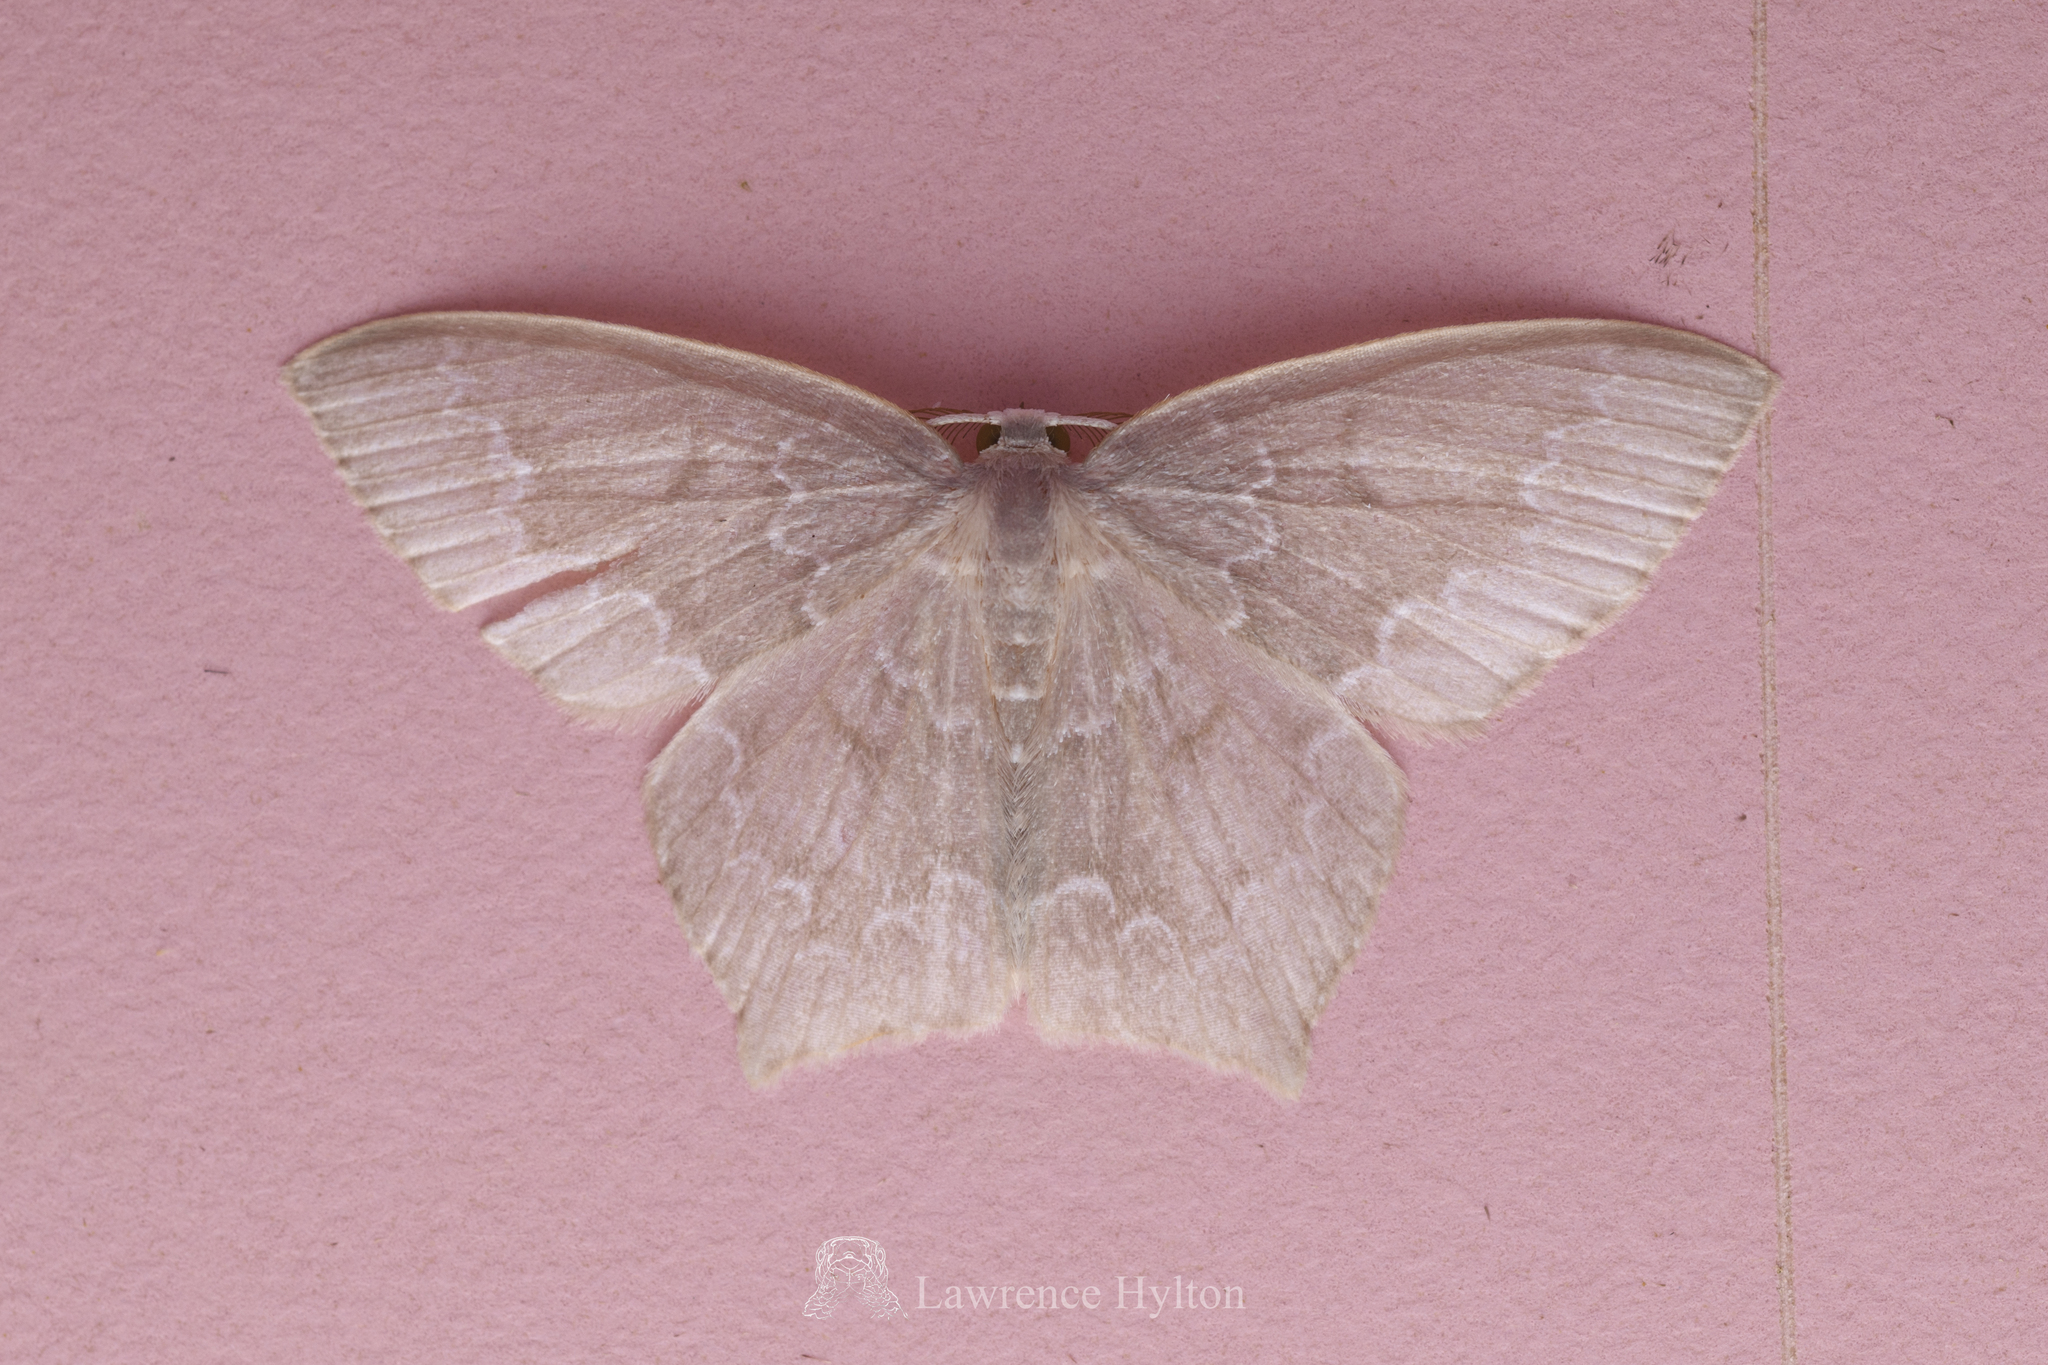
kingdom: Animalia
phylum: Arthropoda
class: Insecta
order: Lepidoptera
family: Geometridae
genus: Jodis
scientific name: Jodis nanda
